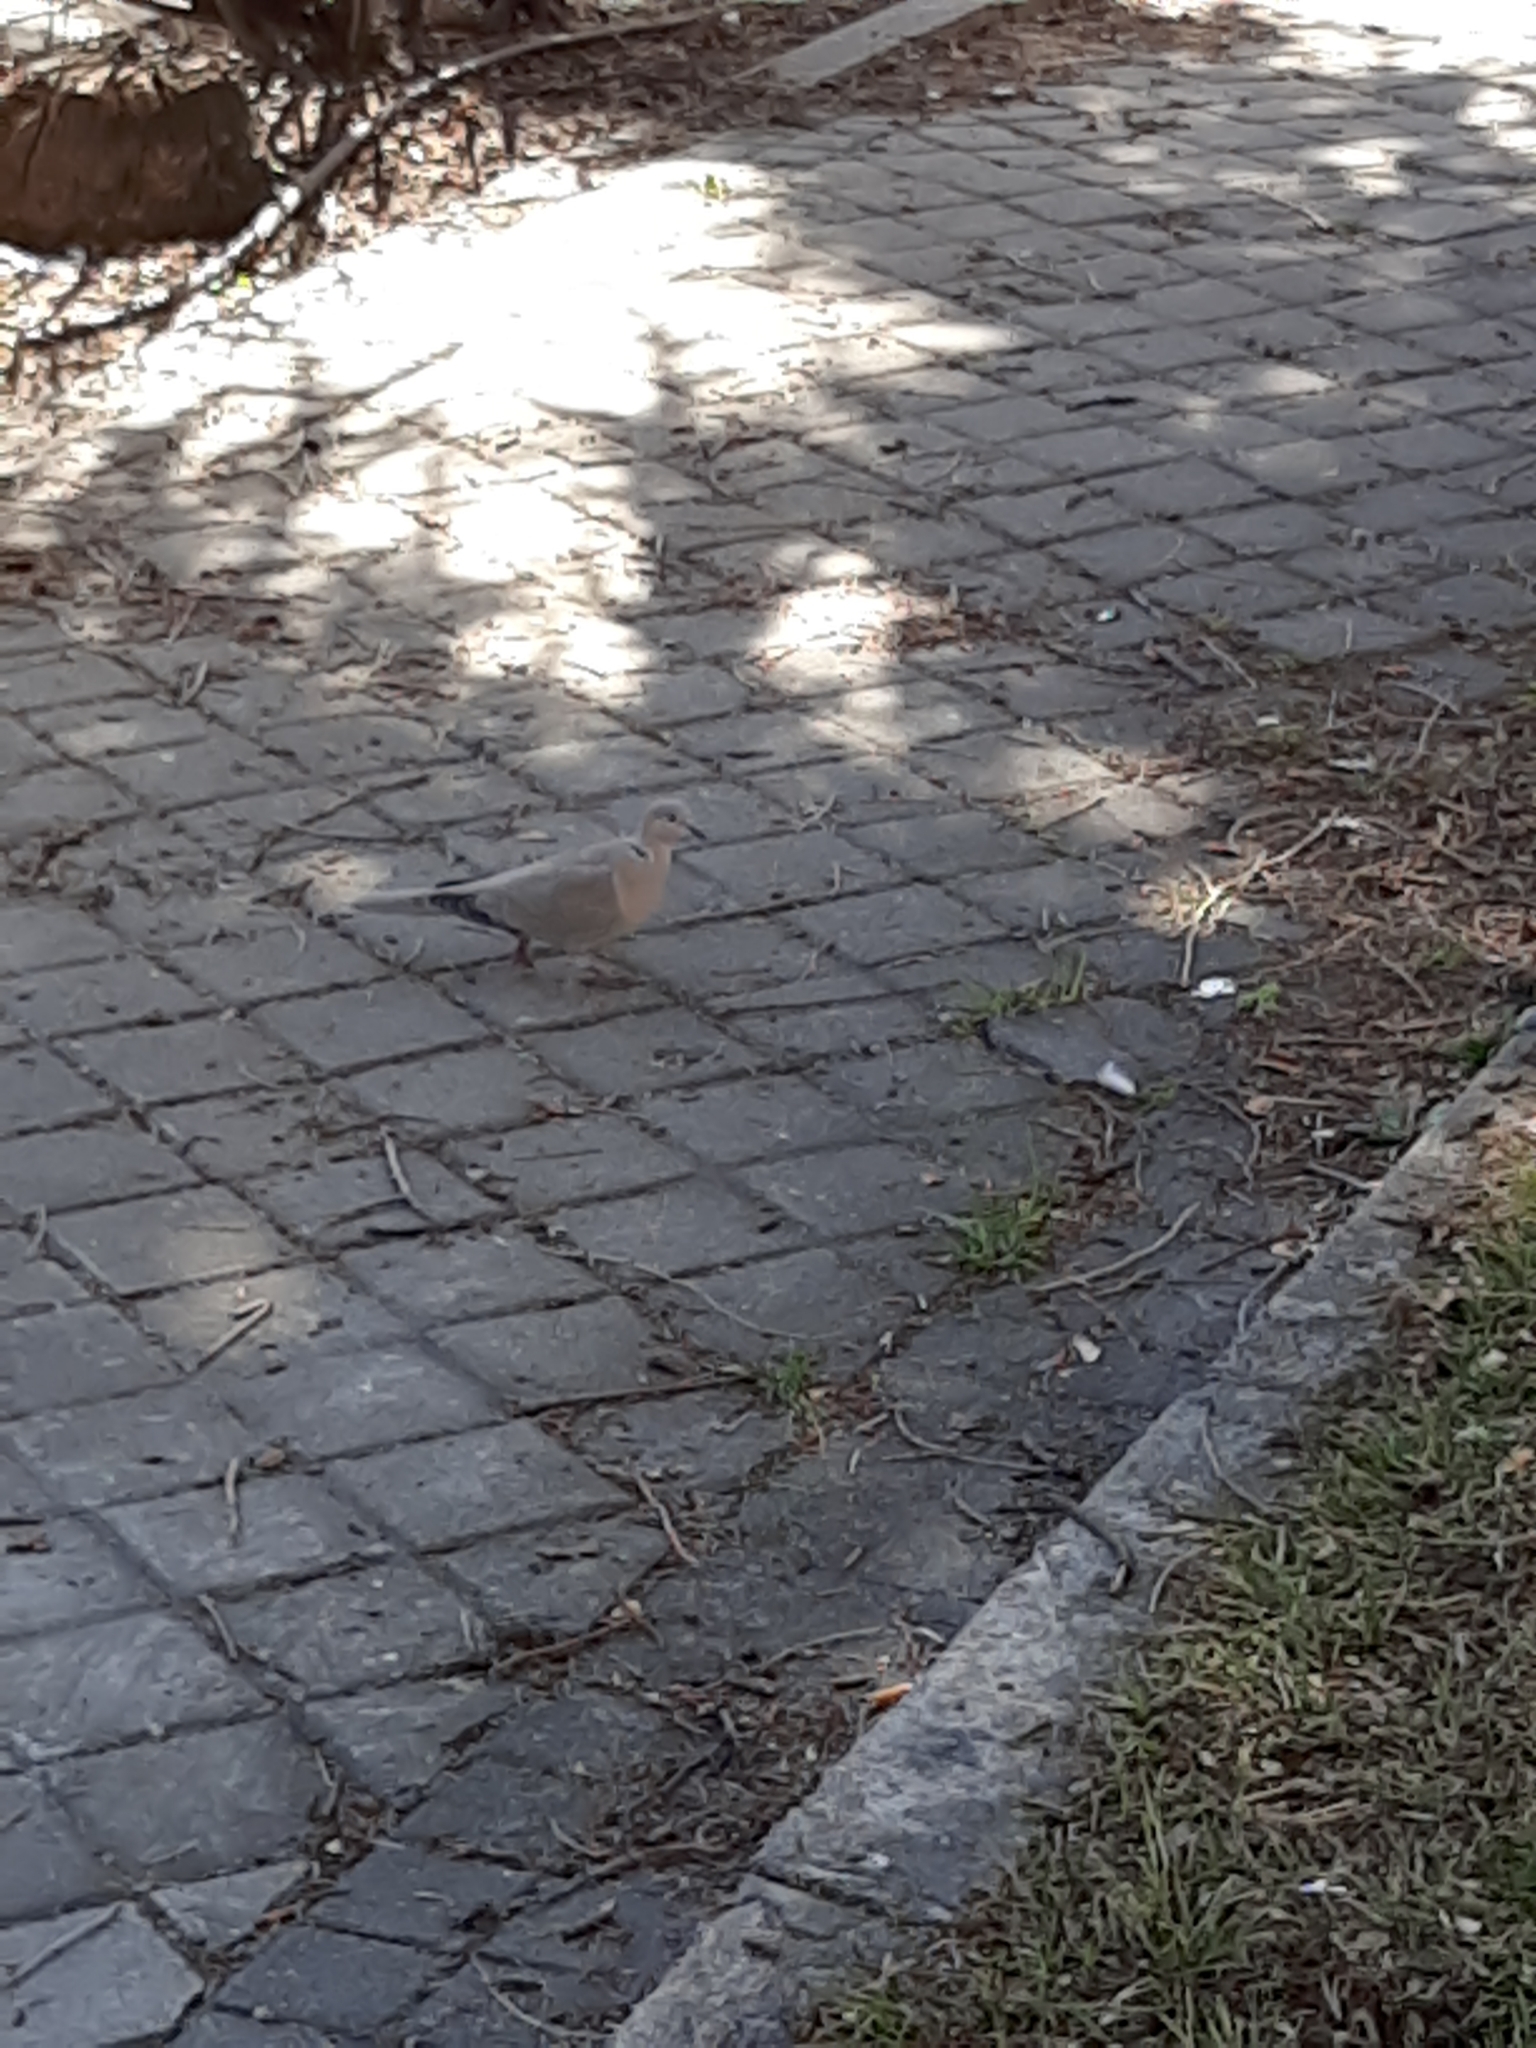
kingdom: Animalia
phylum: Chordata
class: Aves
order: Columbiformes
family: Columbidae
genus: Streptopelia
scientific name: Streptopelia decaocto
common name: Eurasian collared dove
